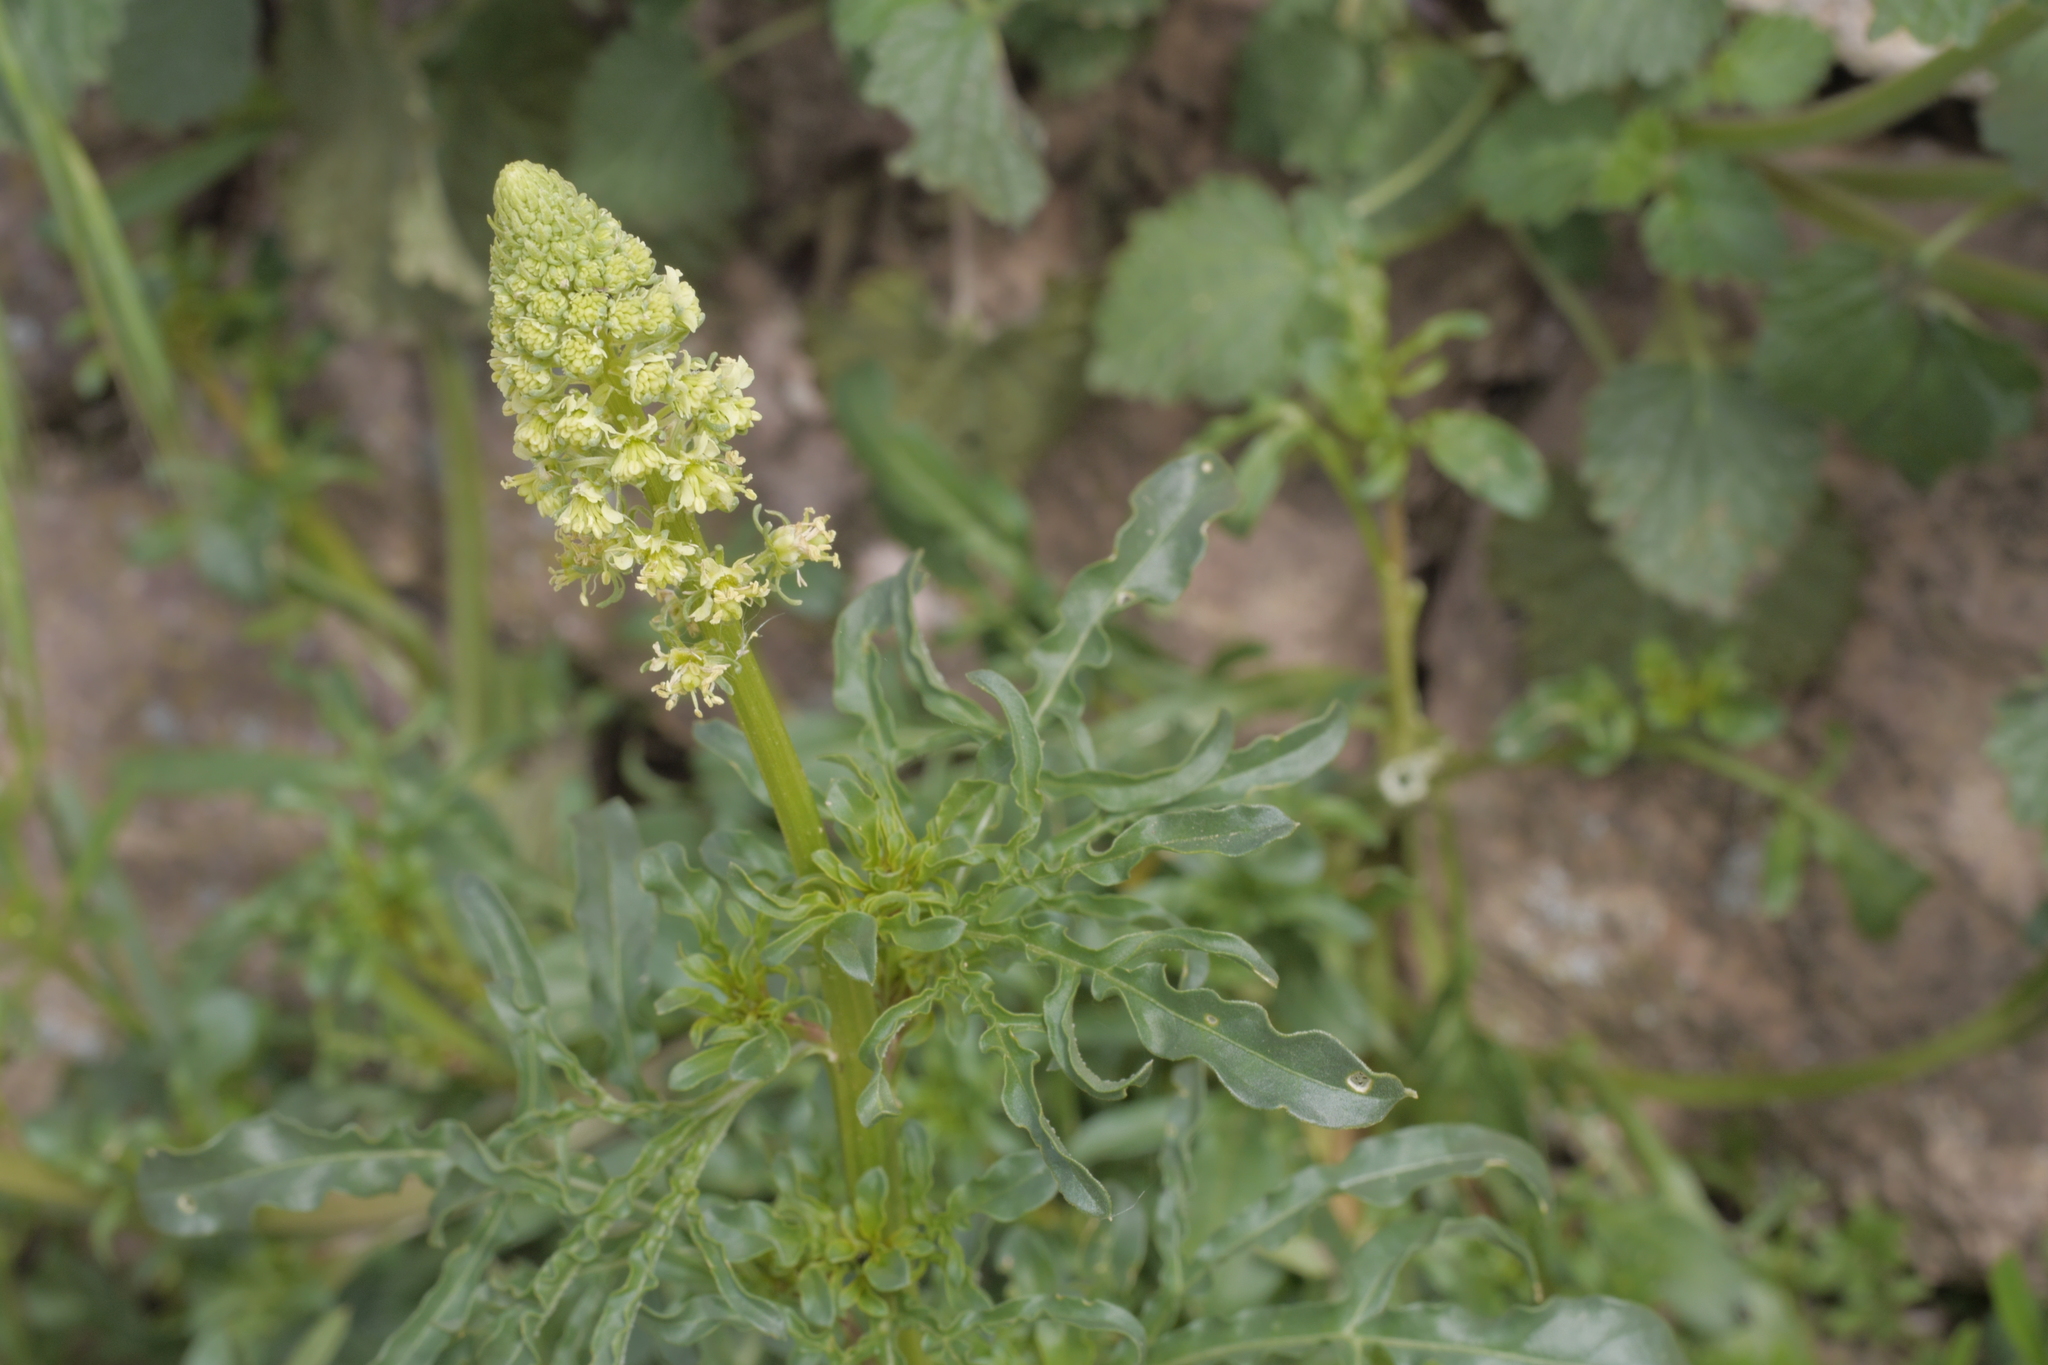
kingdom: Plantae
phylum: Tracheophyta
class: Magnoliopsida
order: Brassicales
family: Resedaceae
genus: Reseda
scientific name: Reseda lutea
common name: Wild mignonette
